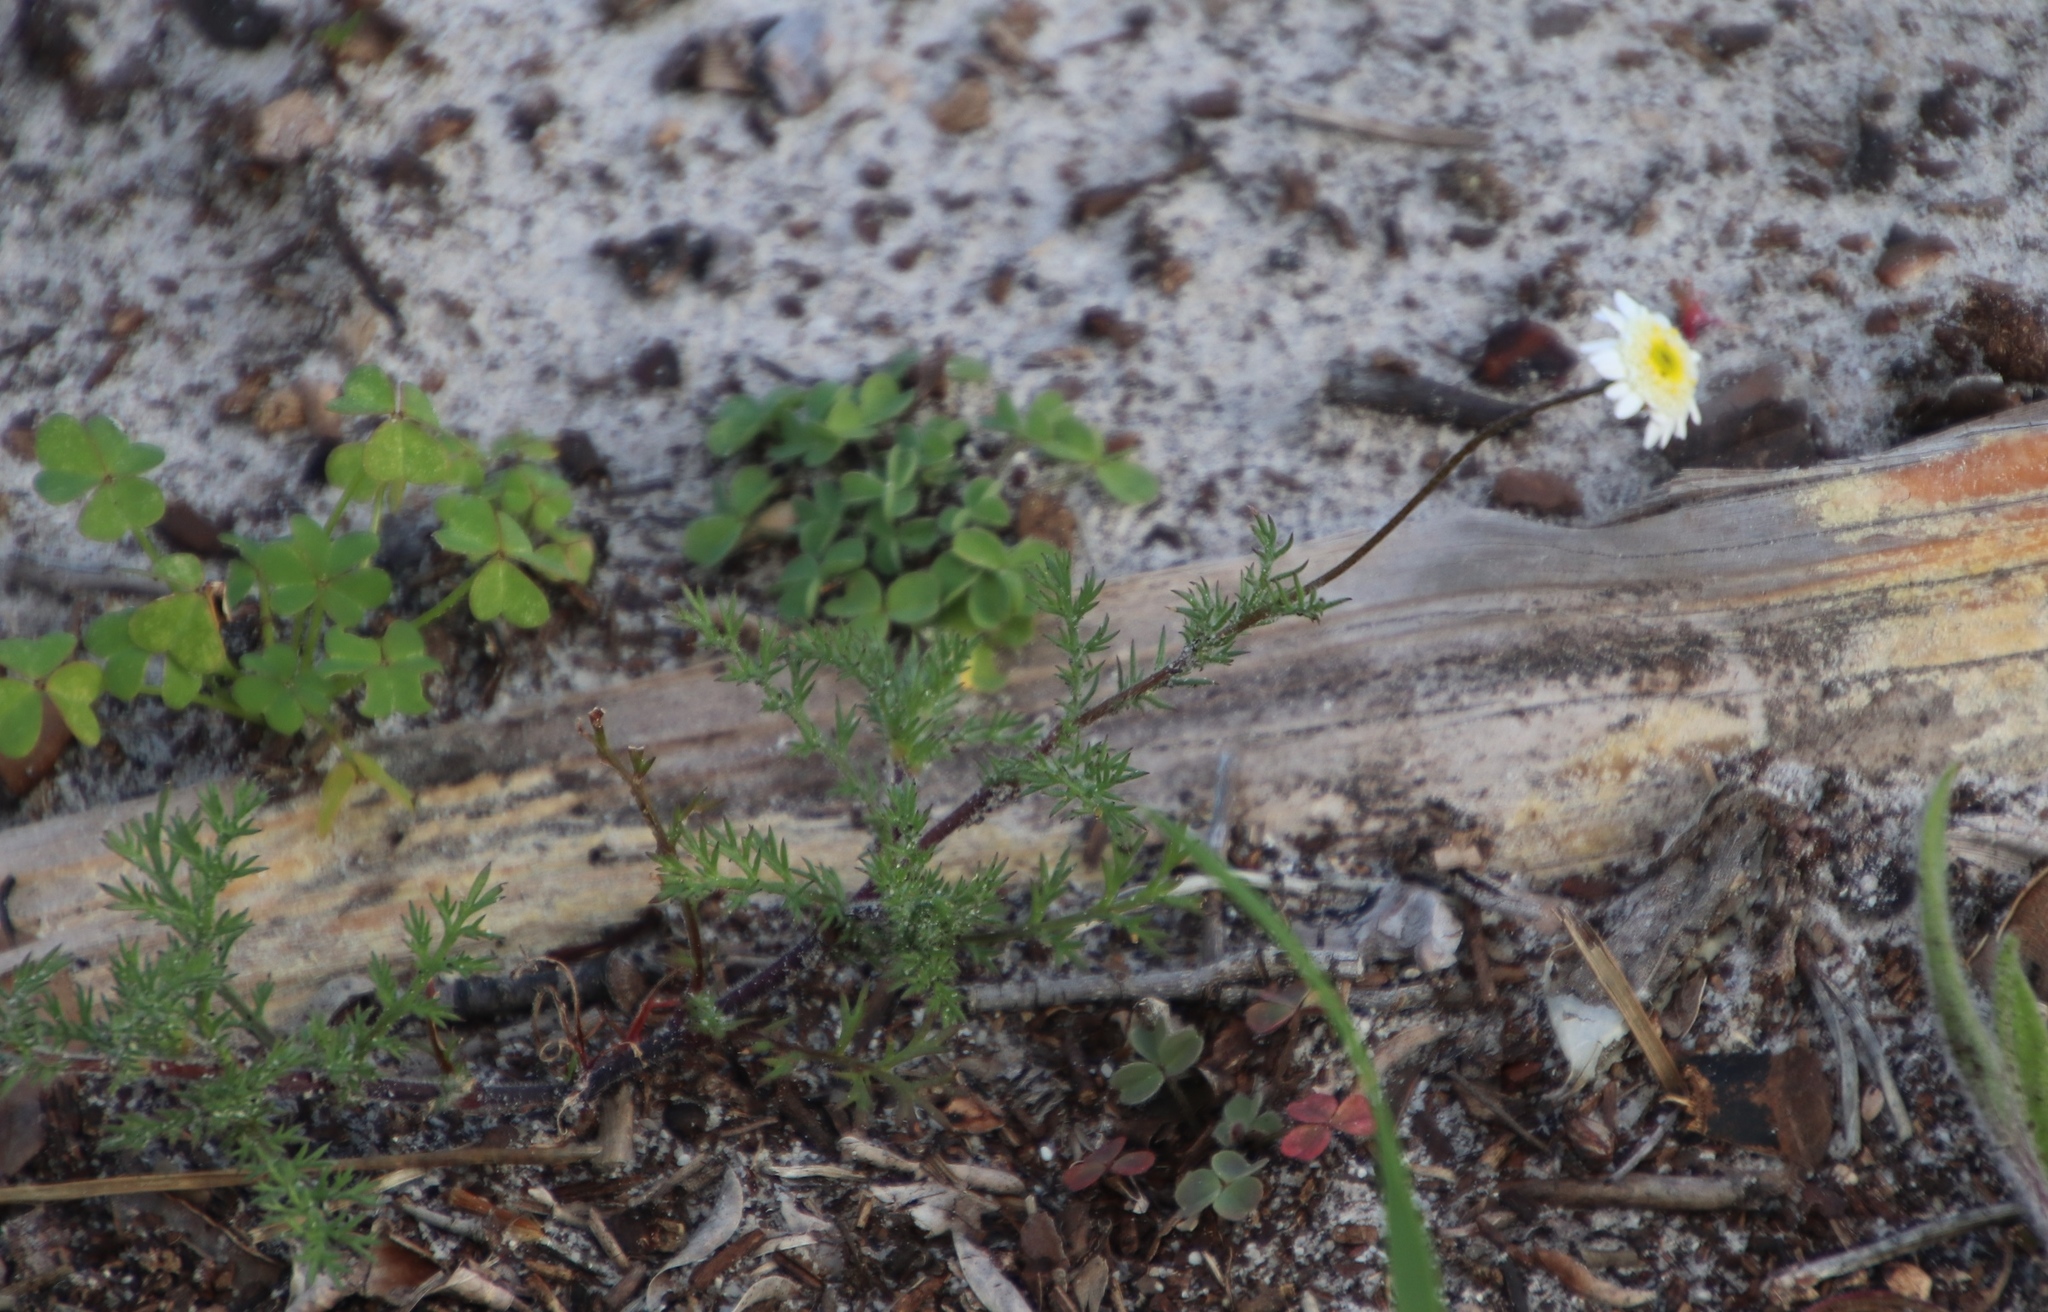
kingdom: Plantae
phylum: Tracheophyta
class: Magnoliopsida
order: Asterales
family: Asteraceae
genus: Cotula
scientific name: Cotula turbinata
